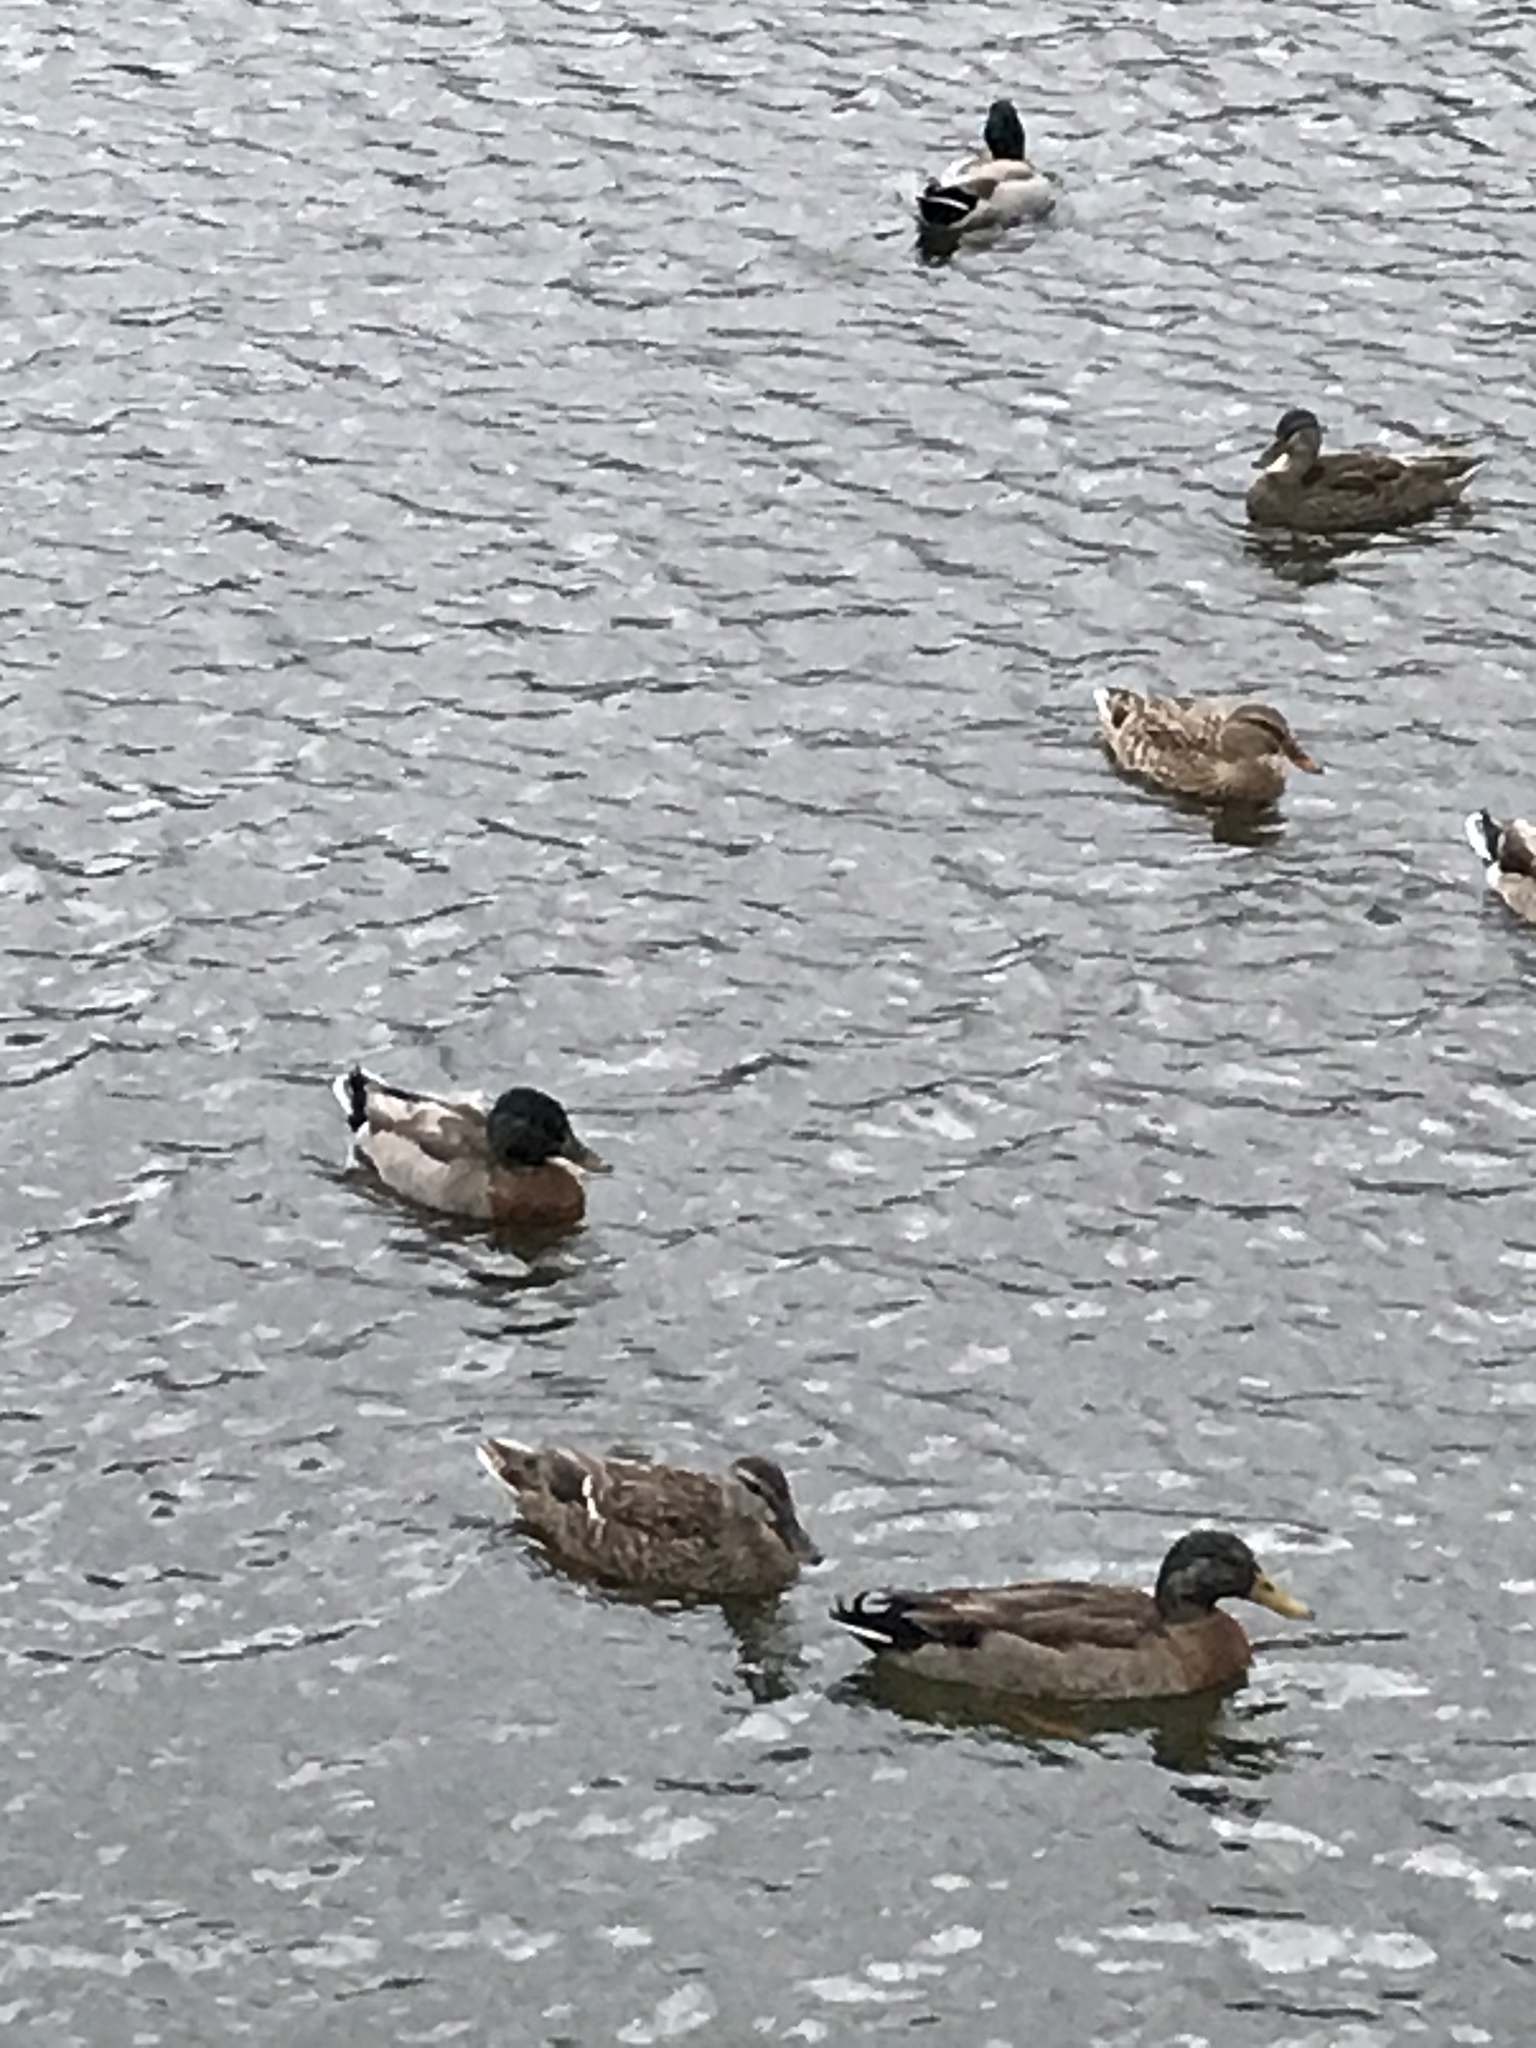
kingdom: Animalia
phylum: Chordata
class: Aves
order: Anseriformes
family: Anatidae
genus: Anas
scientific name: Anas
